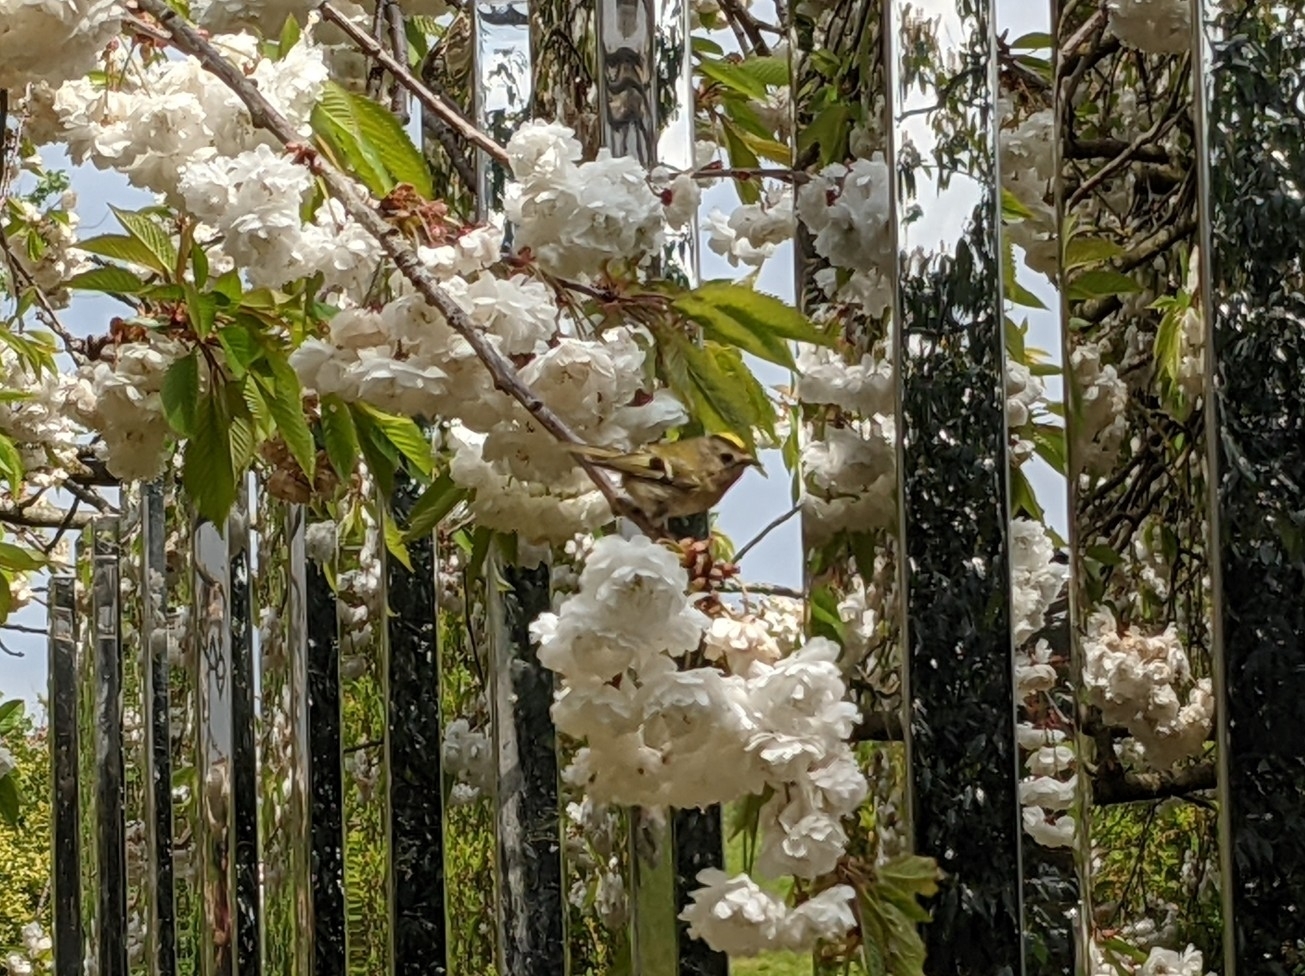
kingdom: Animalia
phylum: Chordata
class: Aves
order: Passeriformes
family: Regulidae
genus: Regulus
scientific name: Regulus regulus
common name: Goldcrest
